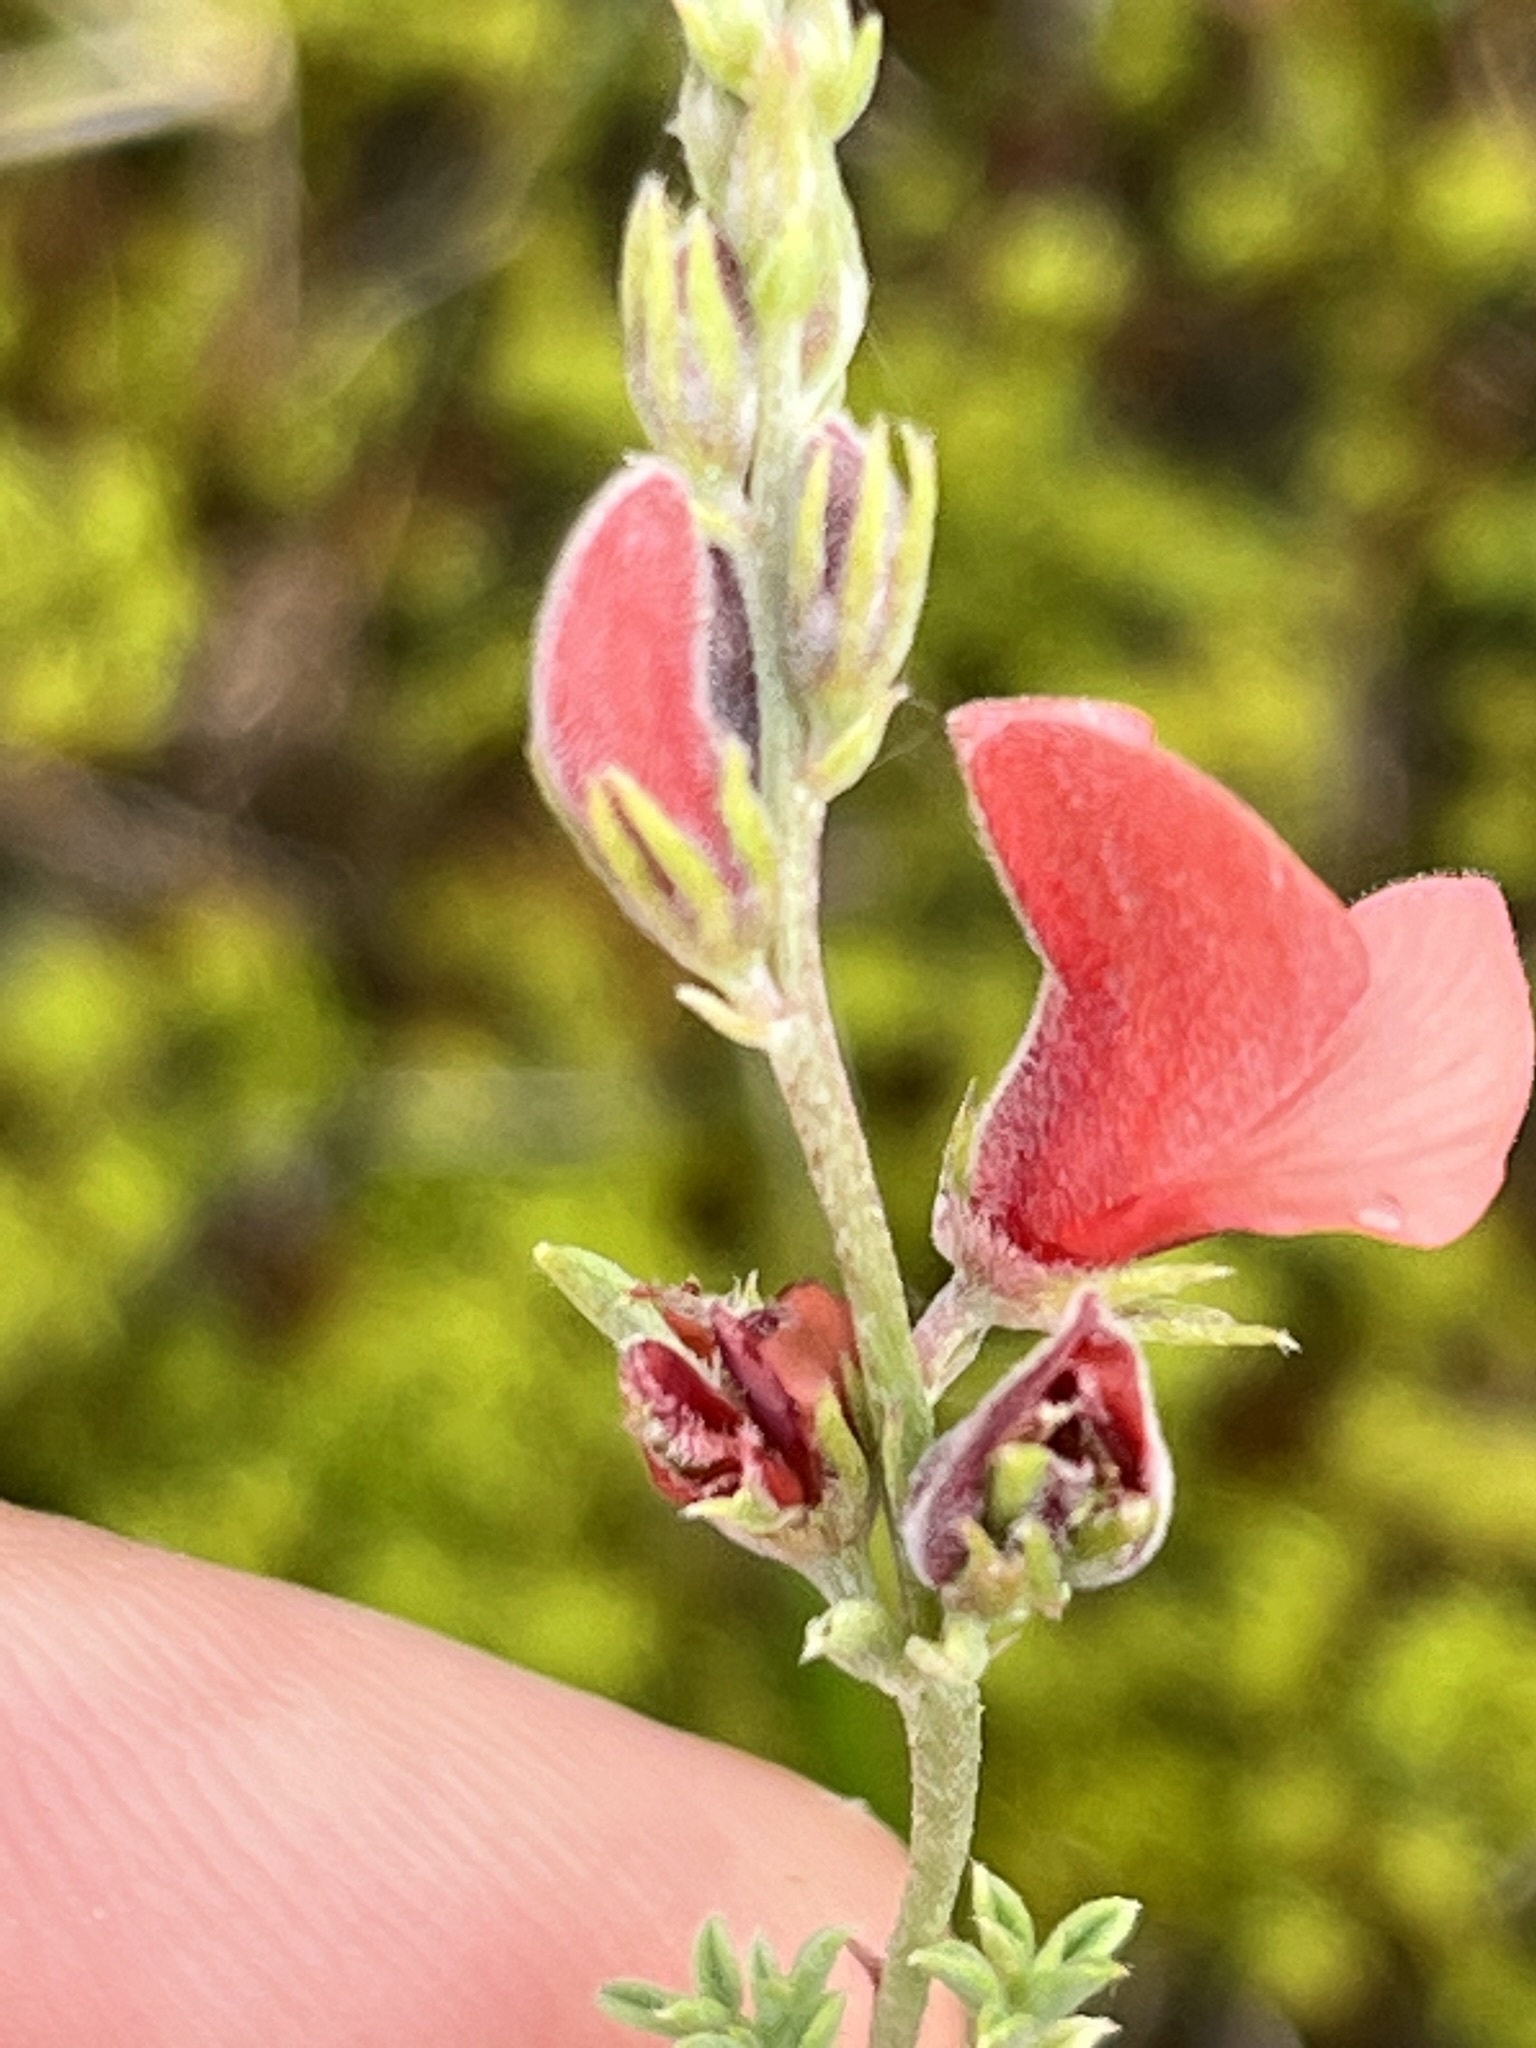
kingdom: Plantae
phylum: Tracheophyta
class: Magnoliopsida
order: Fabales
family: Fabaceae
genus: Indigofera
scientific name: Indigofera heterophylla
